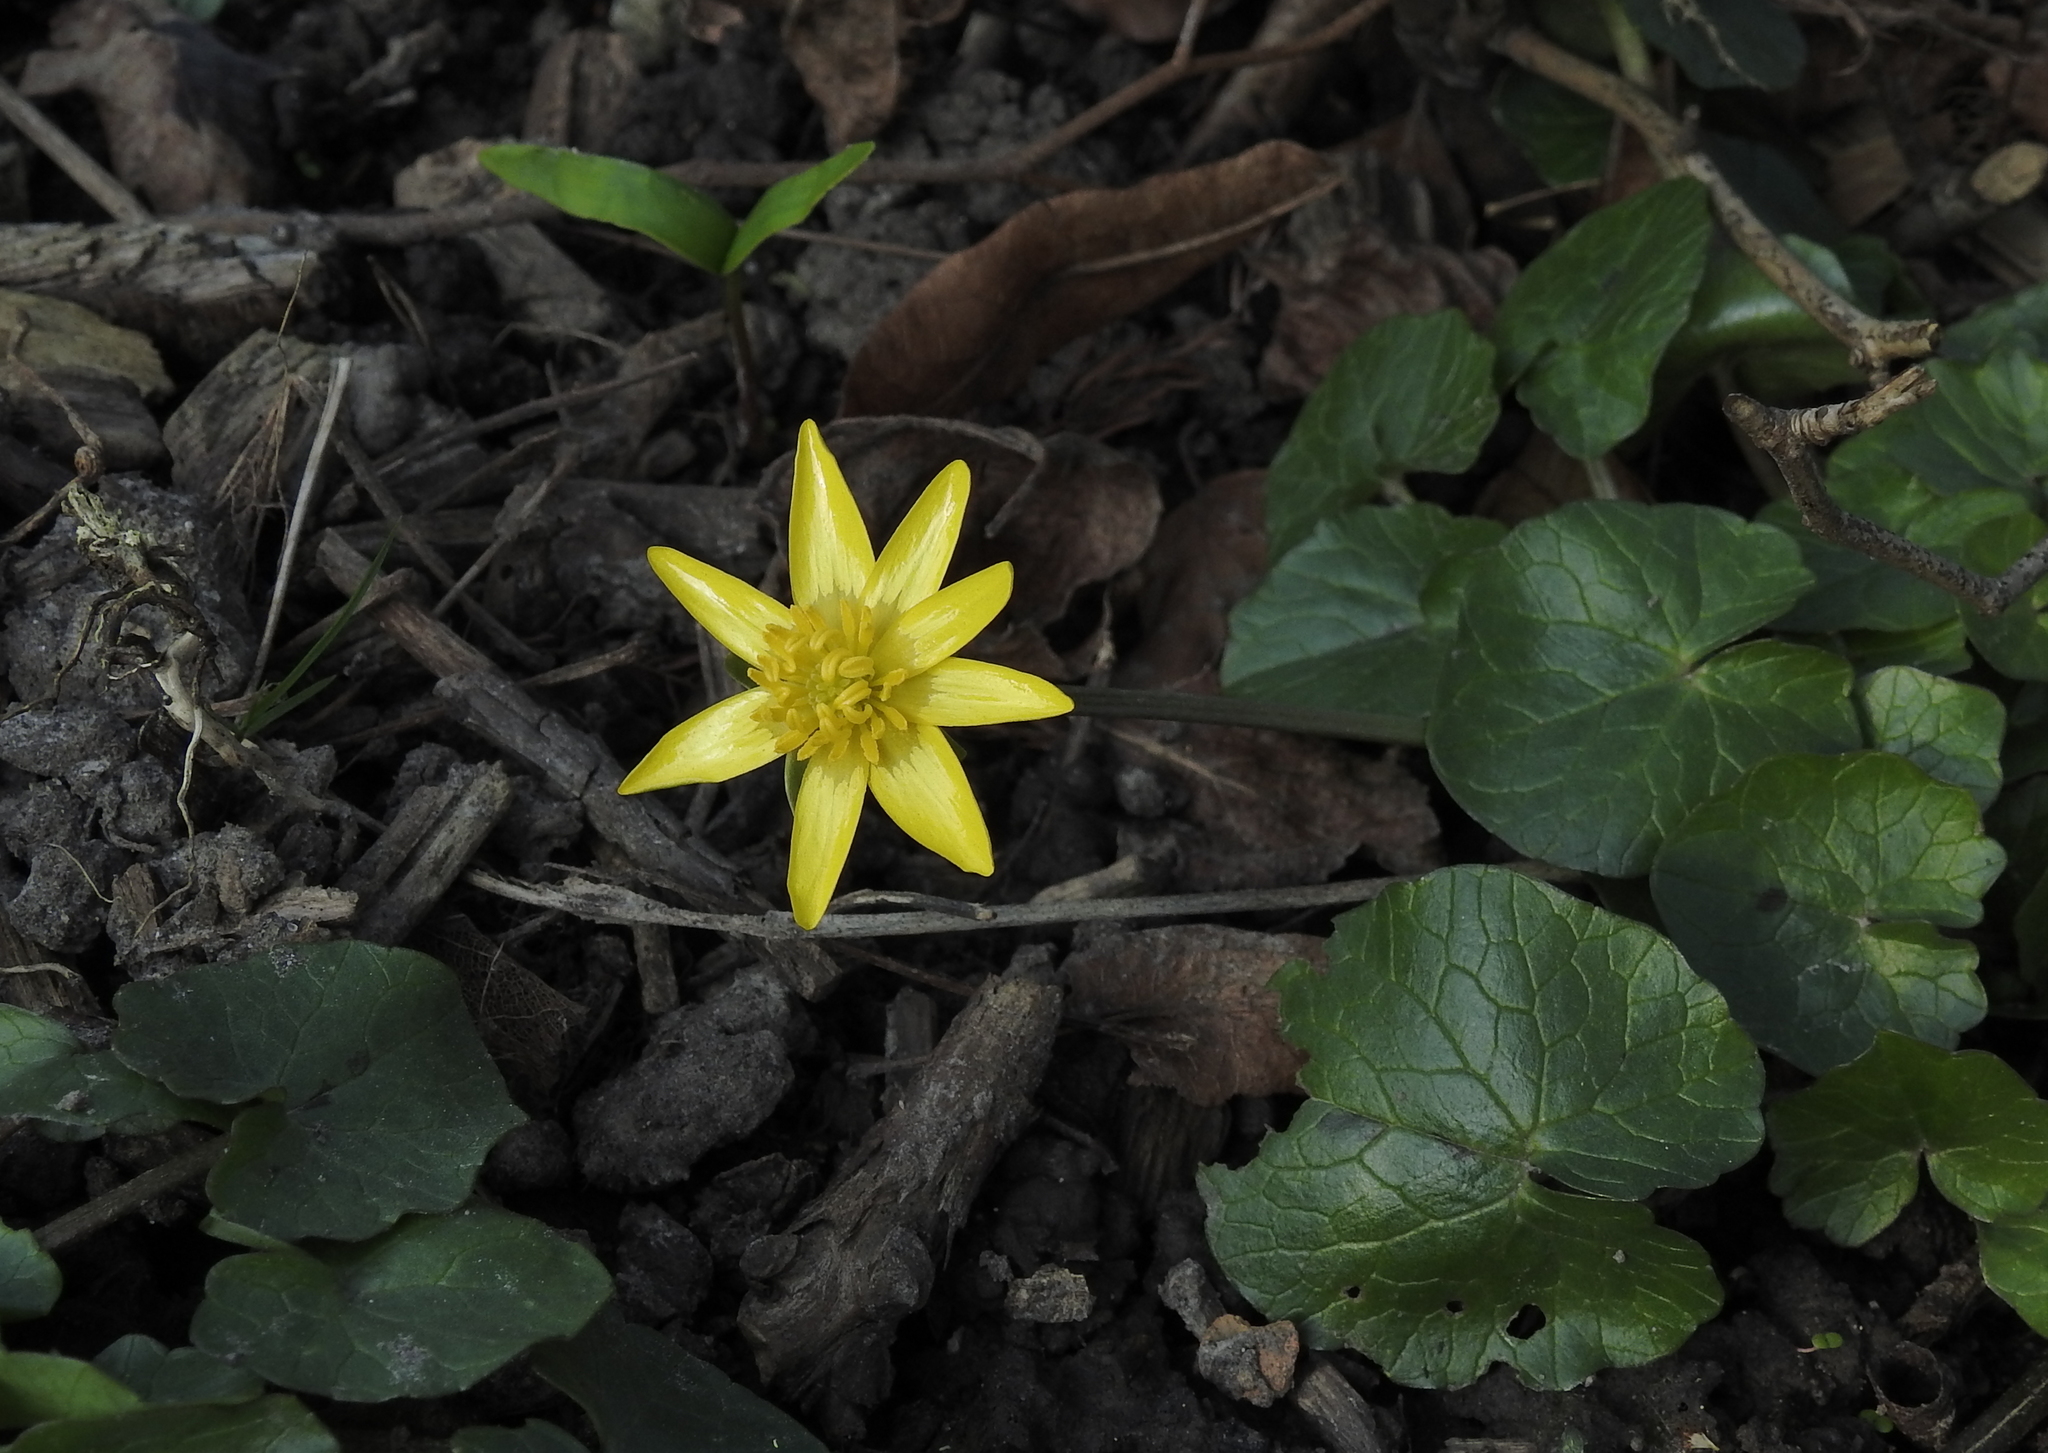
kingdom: Plantae
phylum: Tracheophyta
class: Magnoliopsida
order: Ranunculales
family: Ranunculaceae
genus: Ficaria
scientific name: Ficaria verna
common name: Lesser celandine
